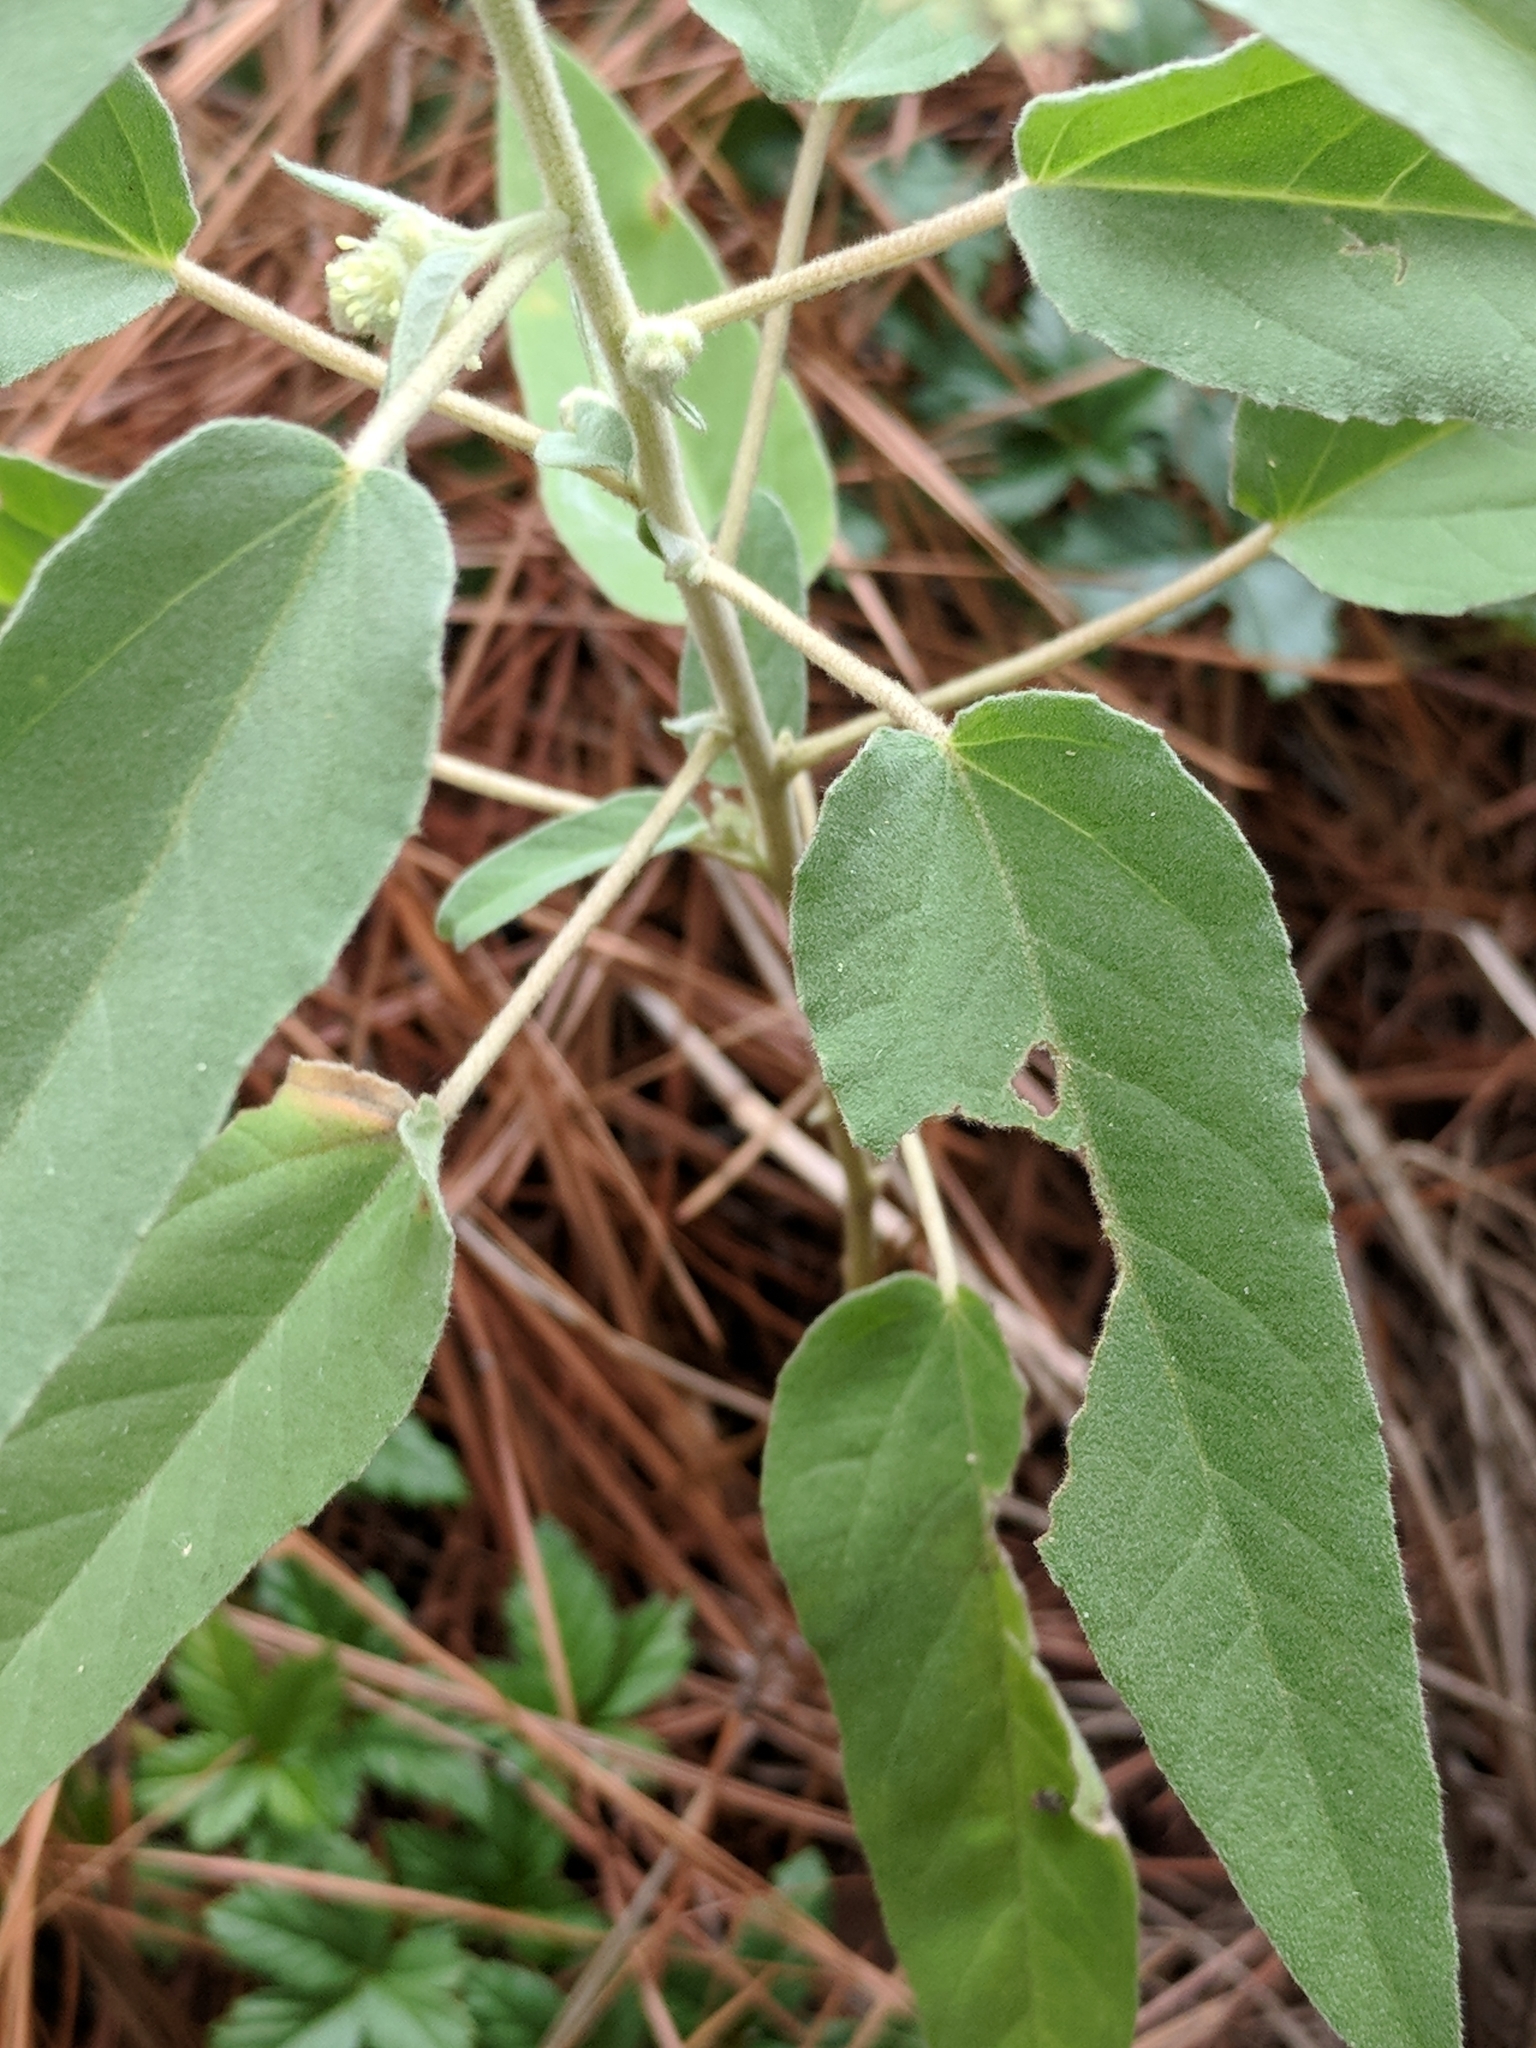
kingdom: Plantae
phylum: Tracheophyta
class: Magnoliopsida
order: Malpighiales
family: Euphorbiaceae
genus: Croton
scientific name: Croton lindheimeri
